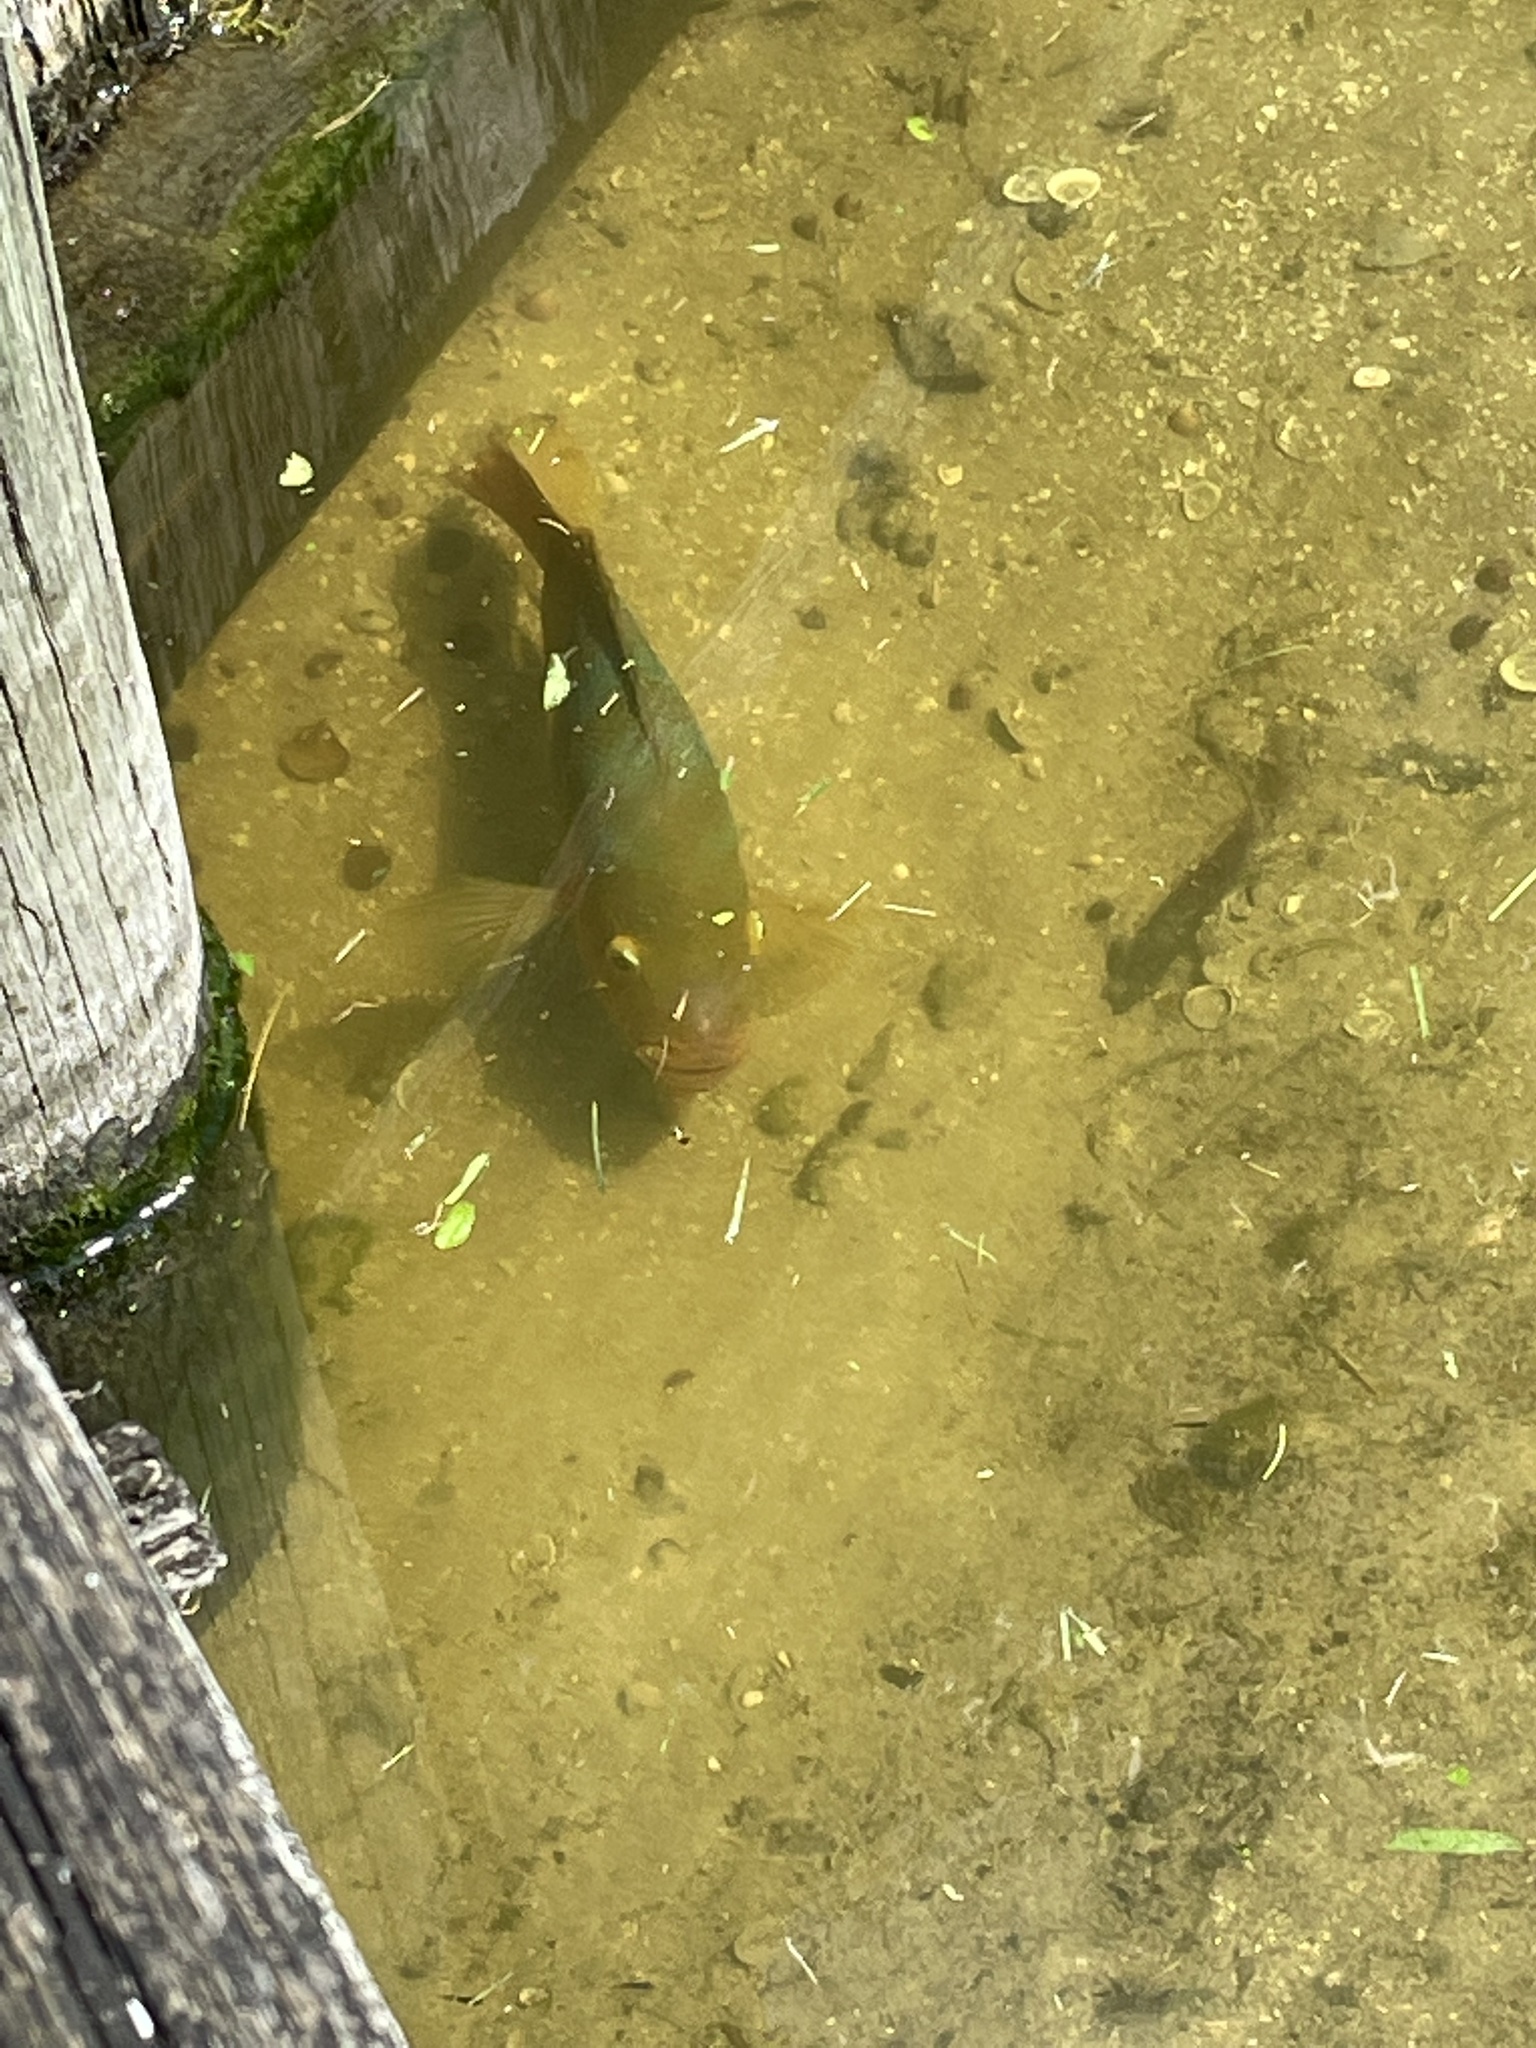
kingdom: Animalia
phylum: Chordata
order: Perciformes
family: Cichlidae
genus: Mayaheros
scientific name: Mayaheros urophthalmus
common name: Mayan cichlid
